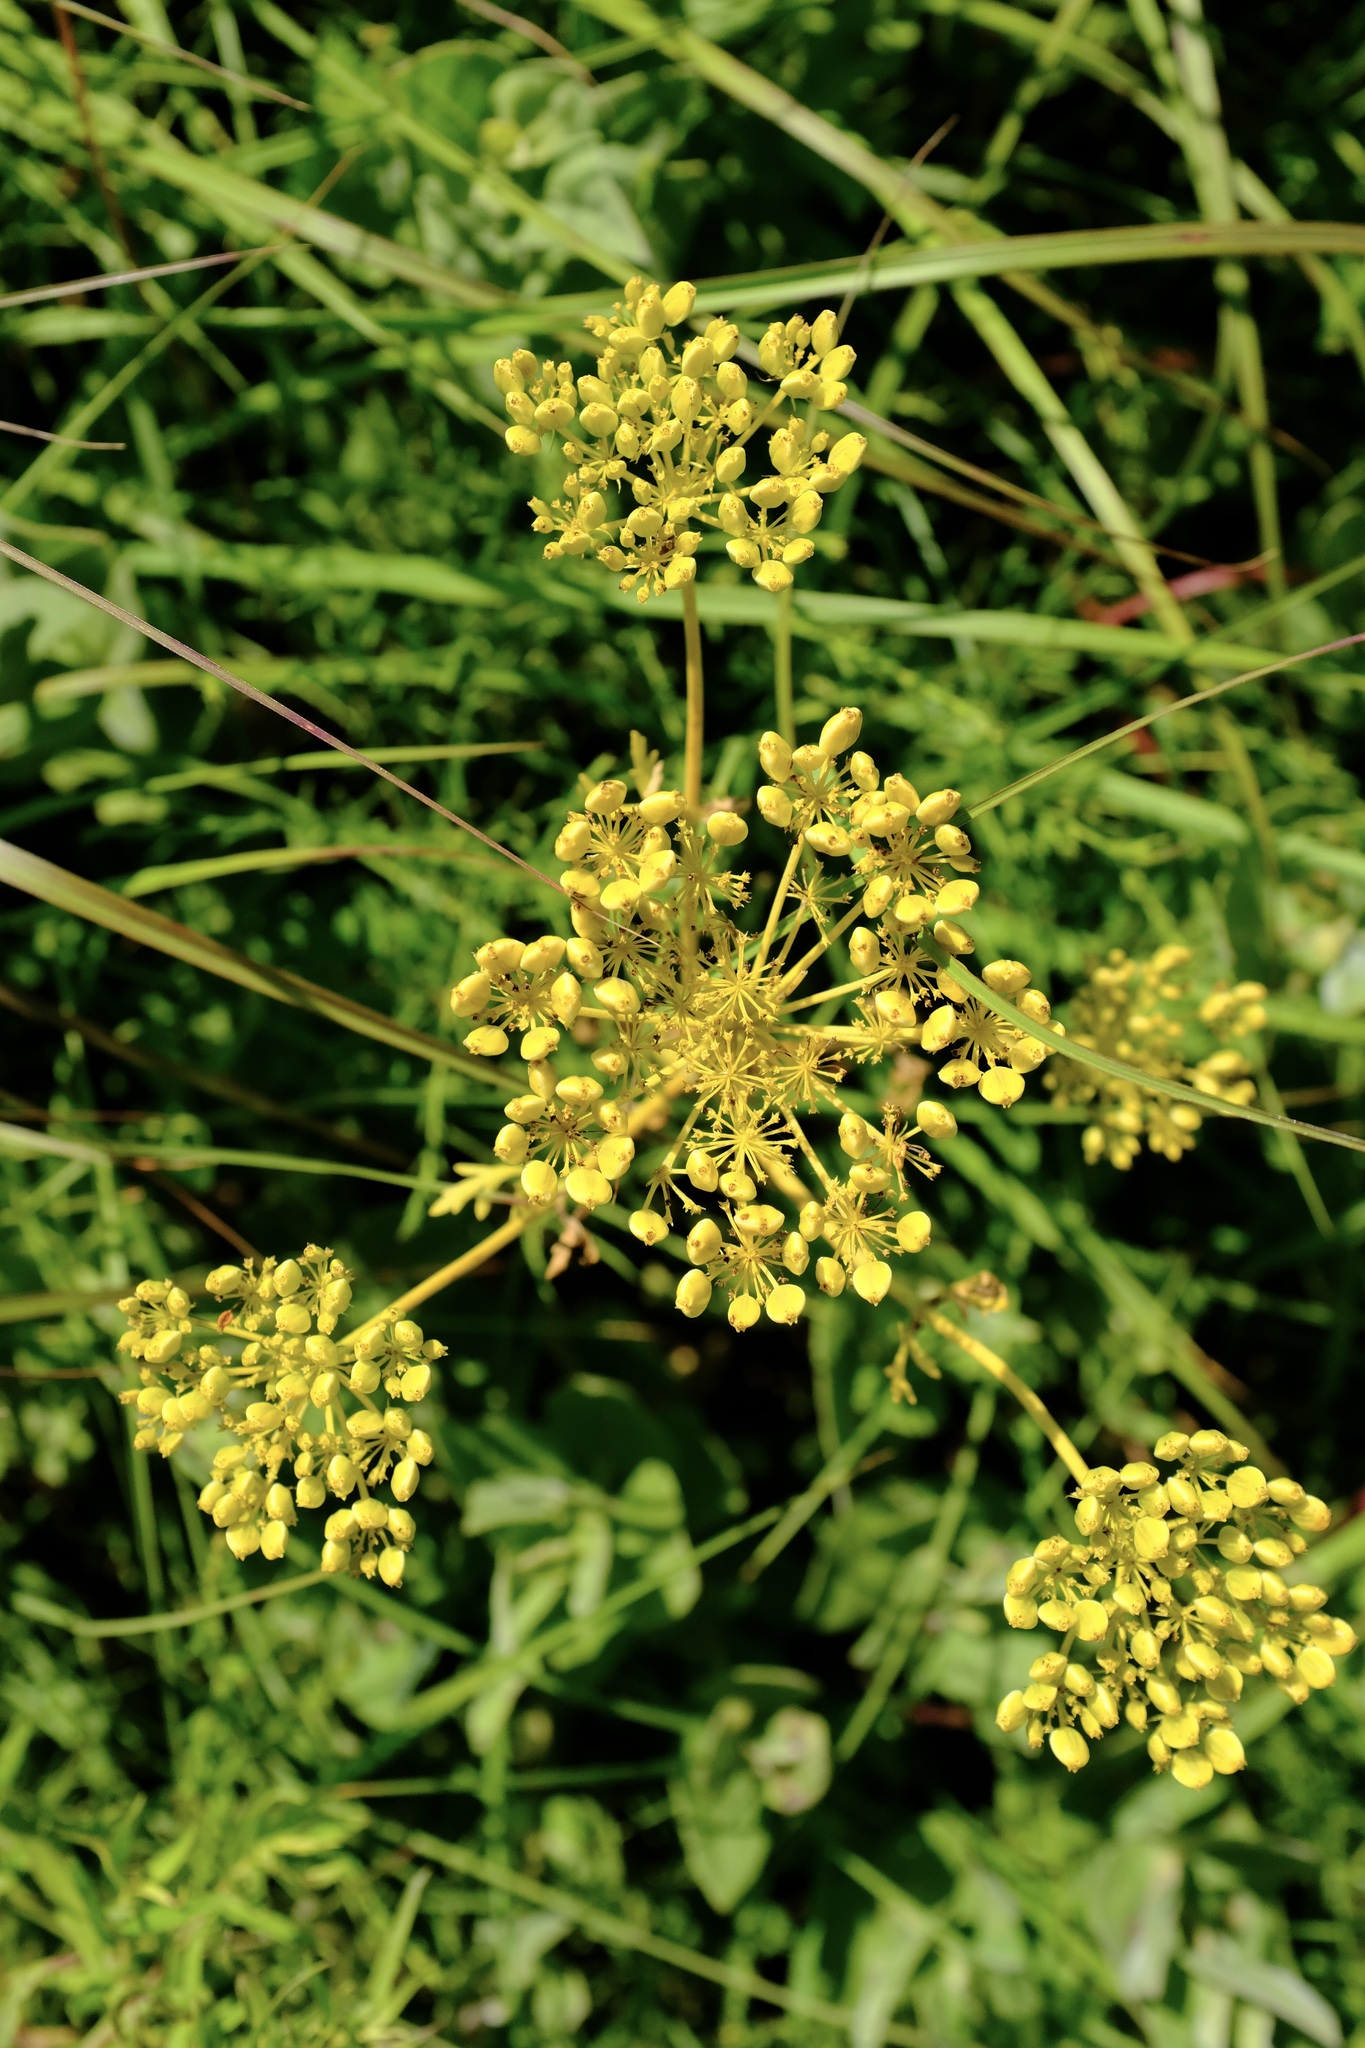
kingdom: Plantae
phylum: Tracheophyta
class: Magnoliopsida
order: Apiales
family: Apiaceae
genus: Polytaenia
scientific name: Polytaenia nuttallii
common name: Prairie-parsley
